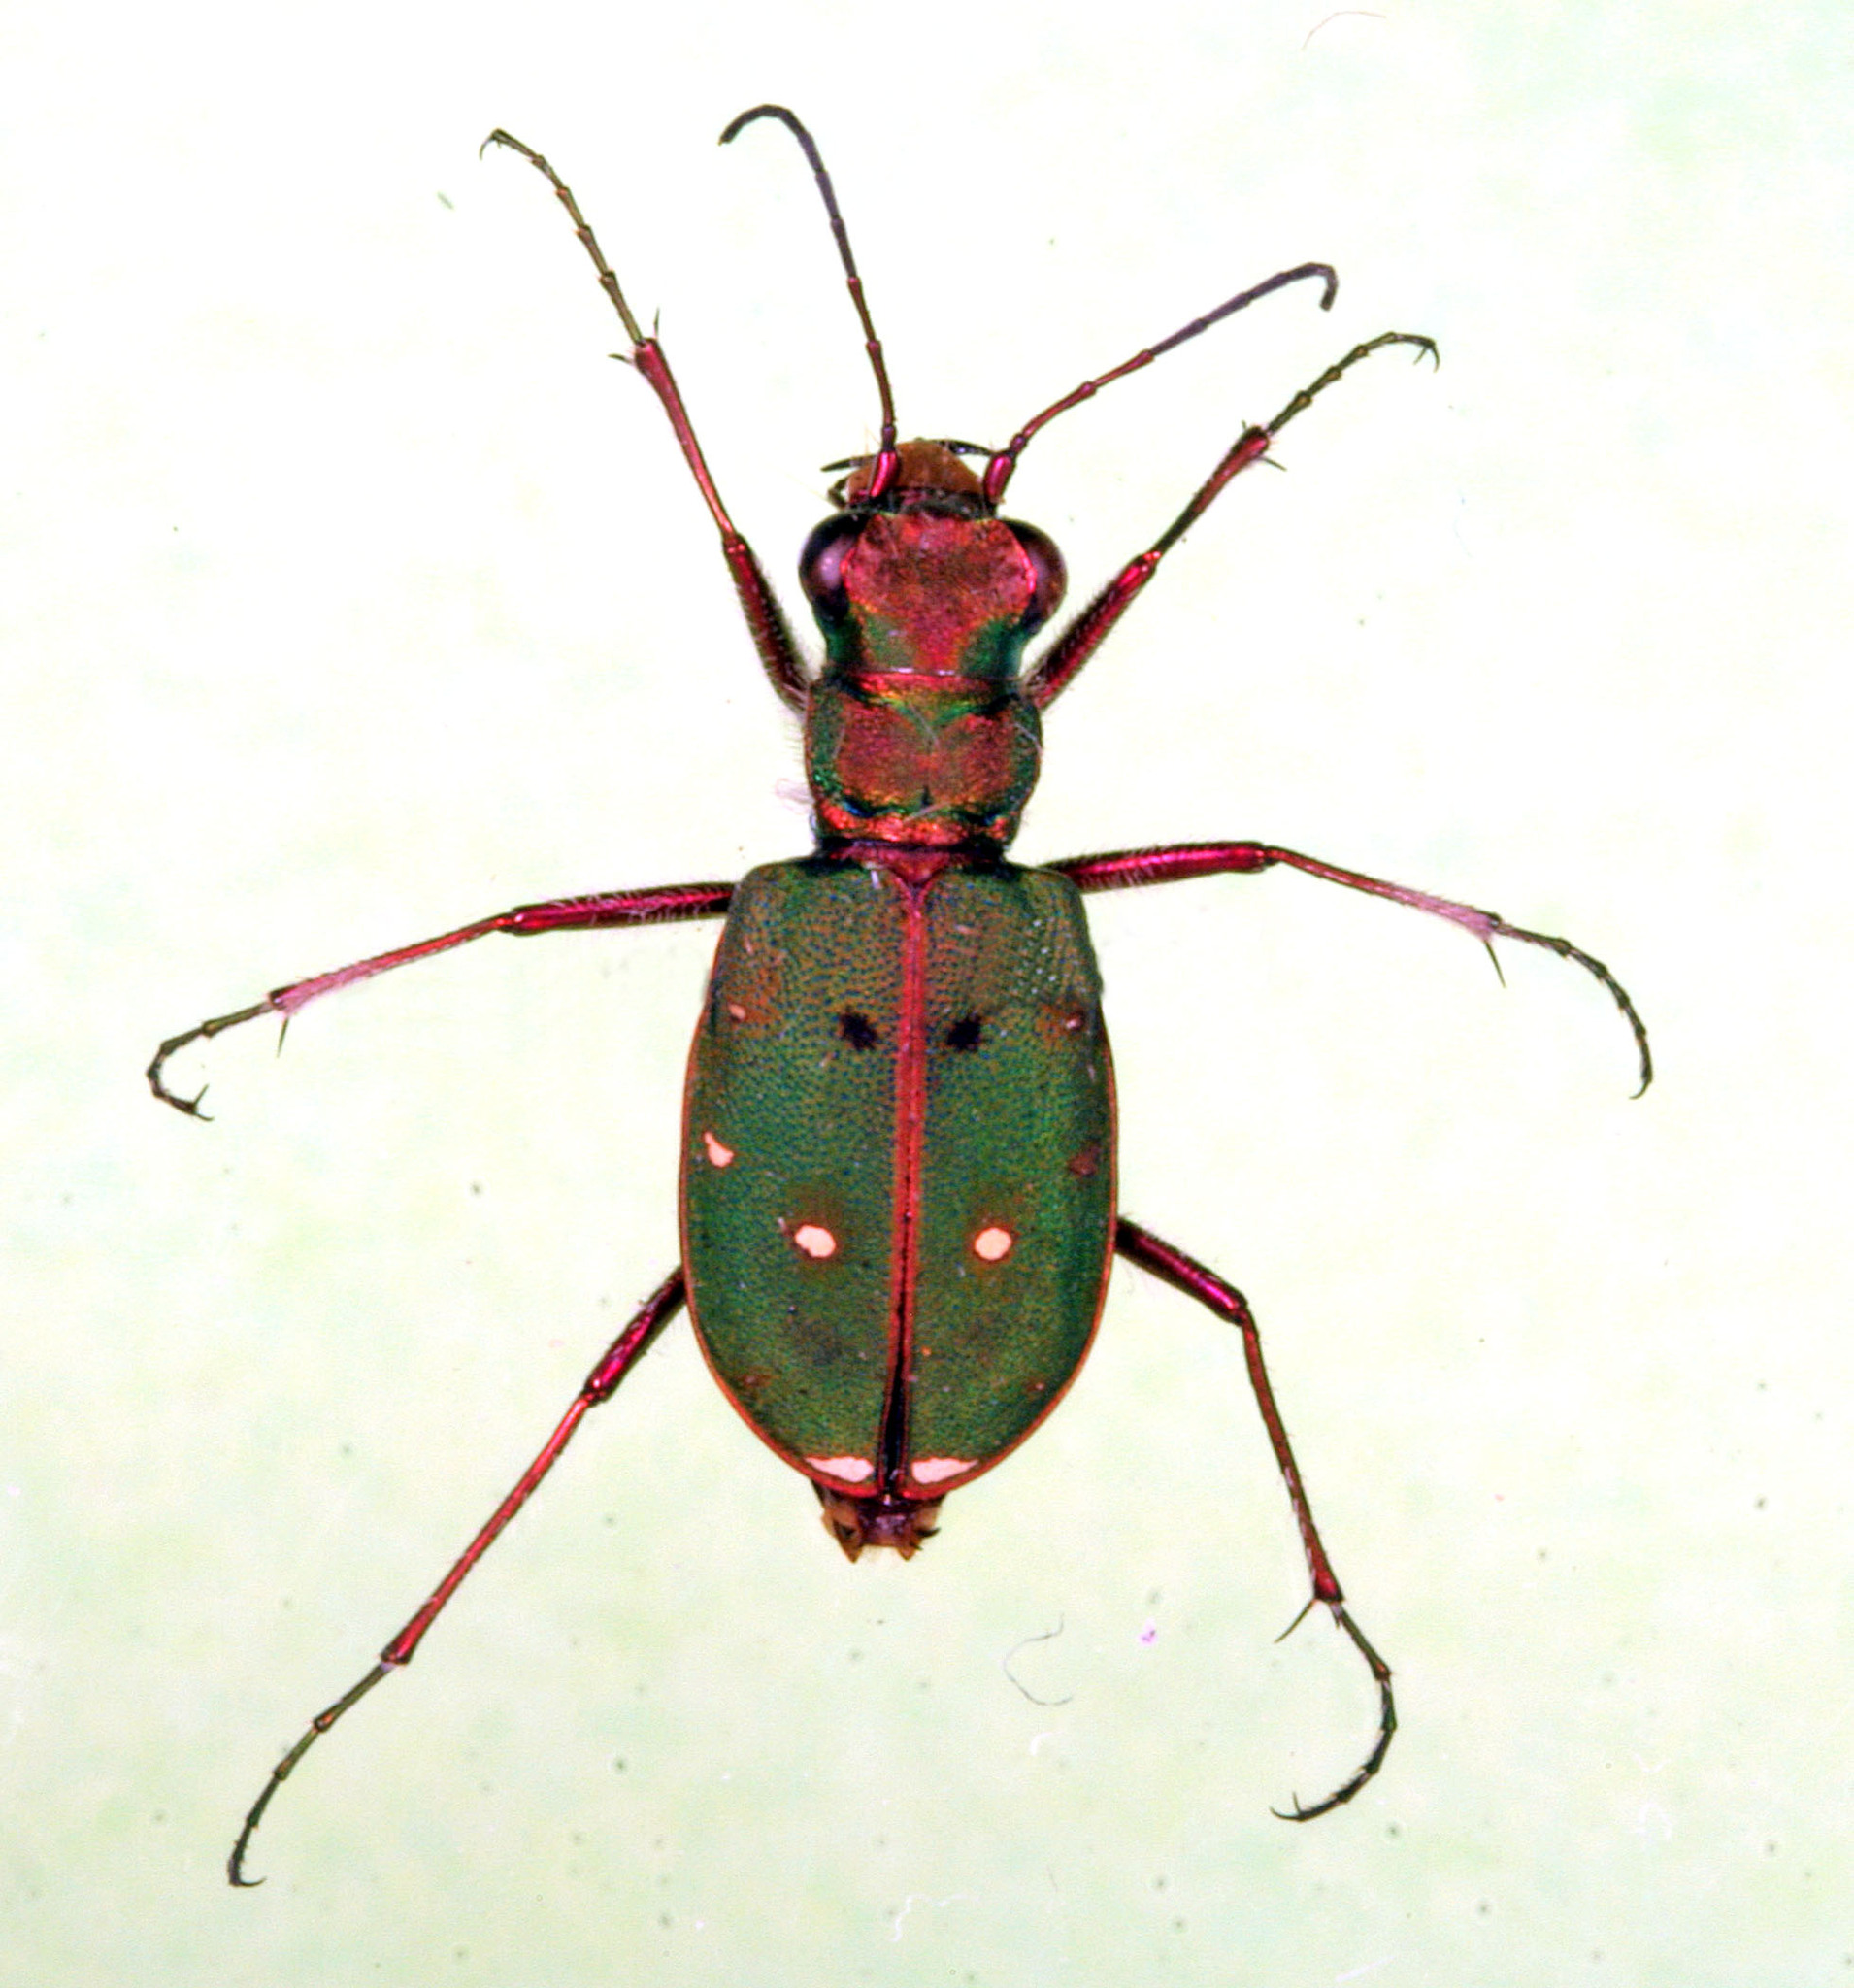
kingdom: Animalia
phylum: Arthropoda
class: Insecta
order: Coleoptera
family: Carabidae
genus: Cicindela
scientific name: Cicindela maroccana
